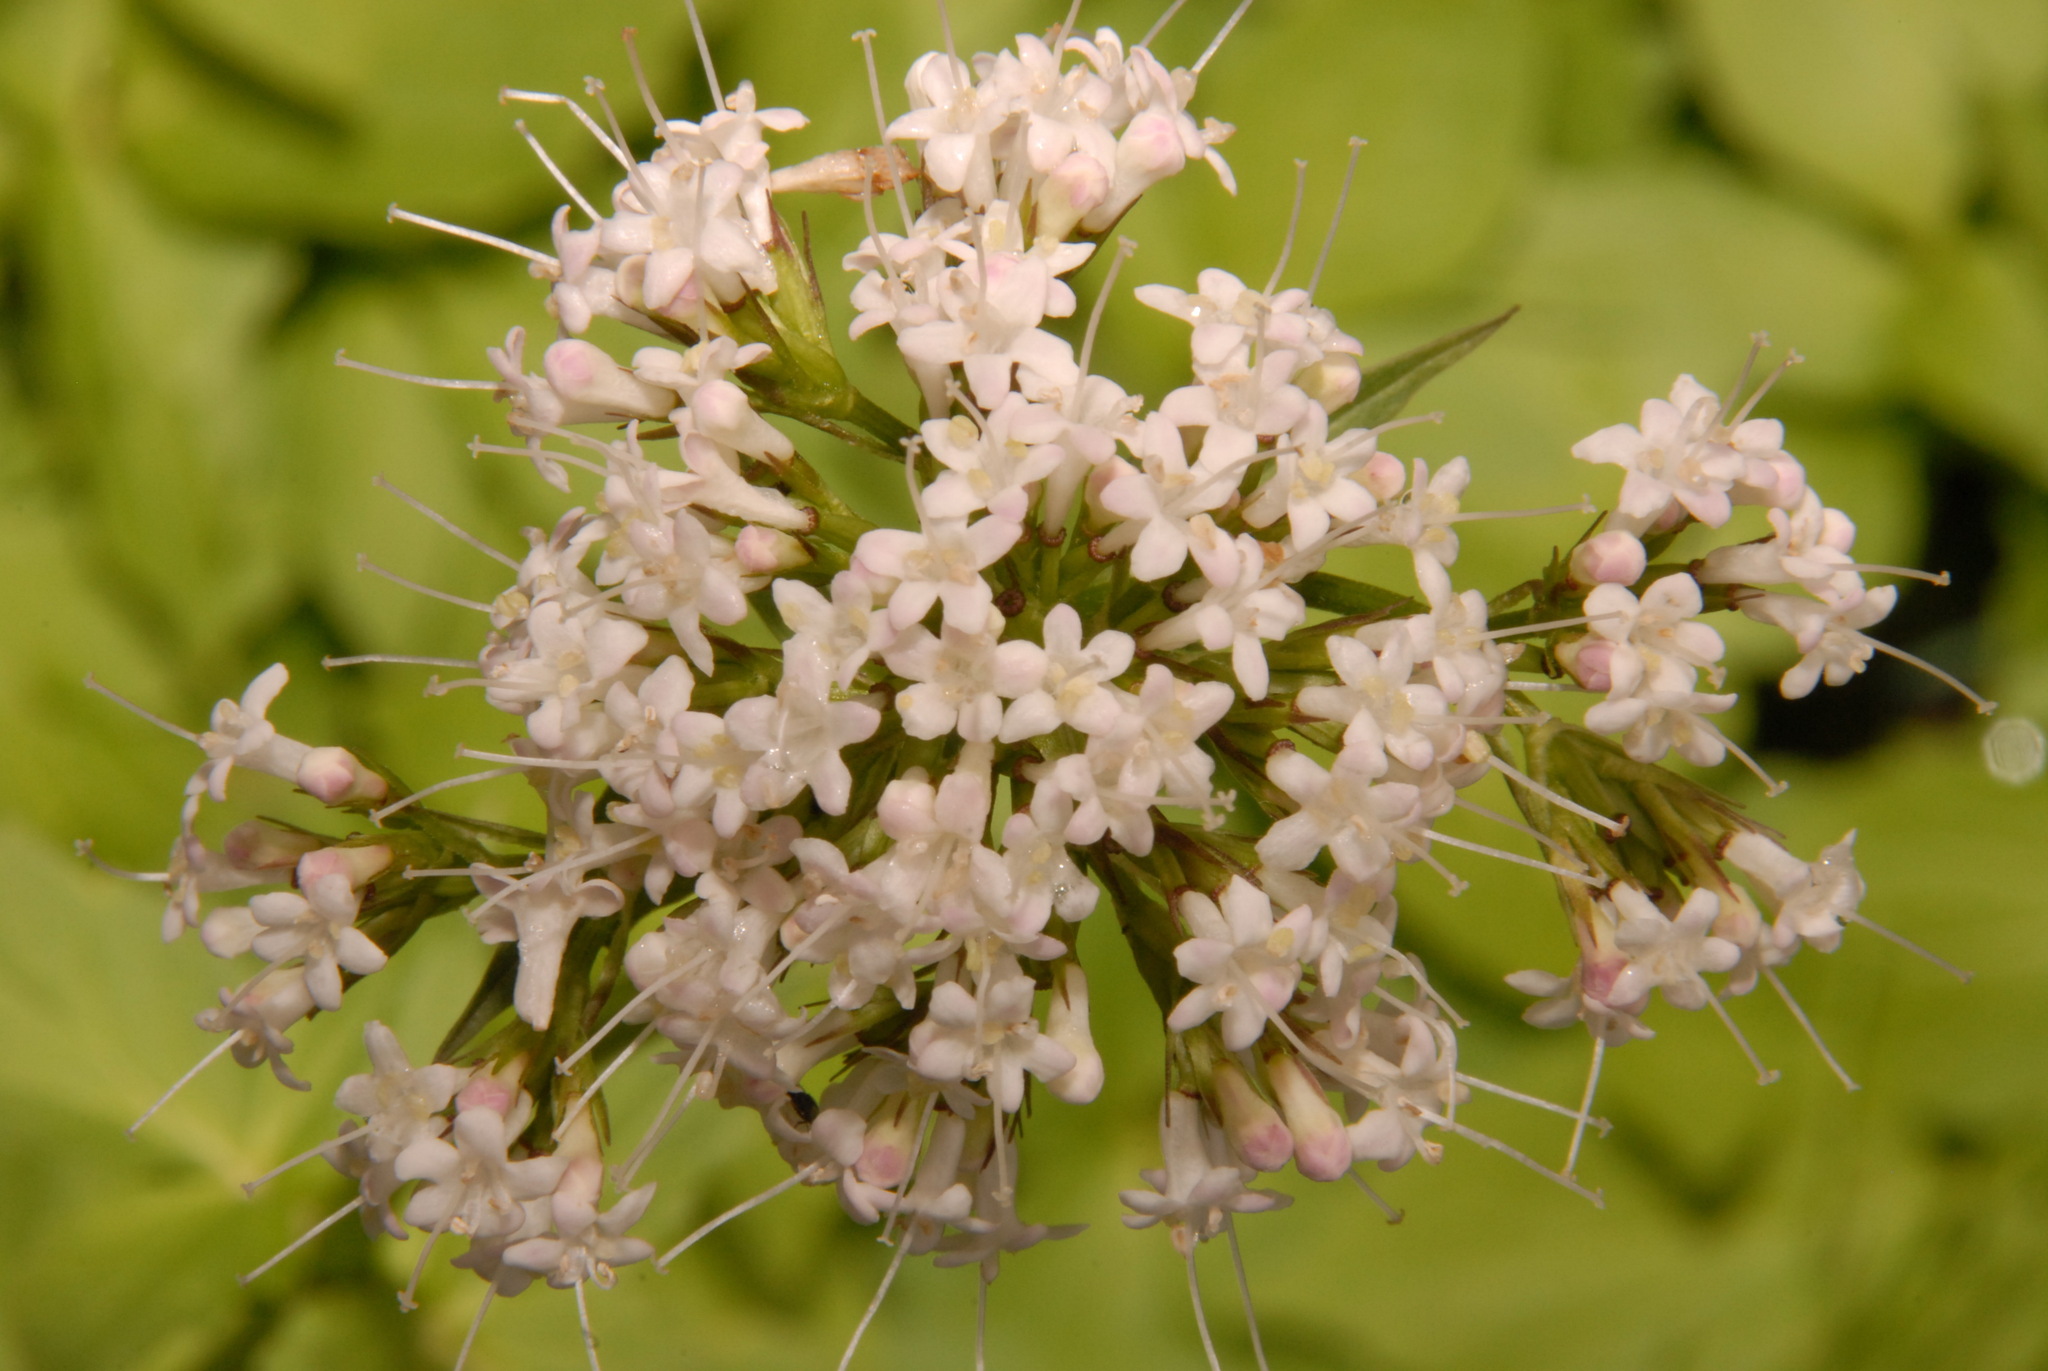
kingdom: Plantae
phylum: Tracheophyta
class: Magnoliopsida
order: Dipsacales
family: Caprifoliaceae
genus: Valeriana
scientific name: Valeriana sitchensis
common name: Pacific valerian
